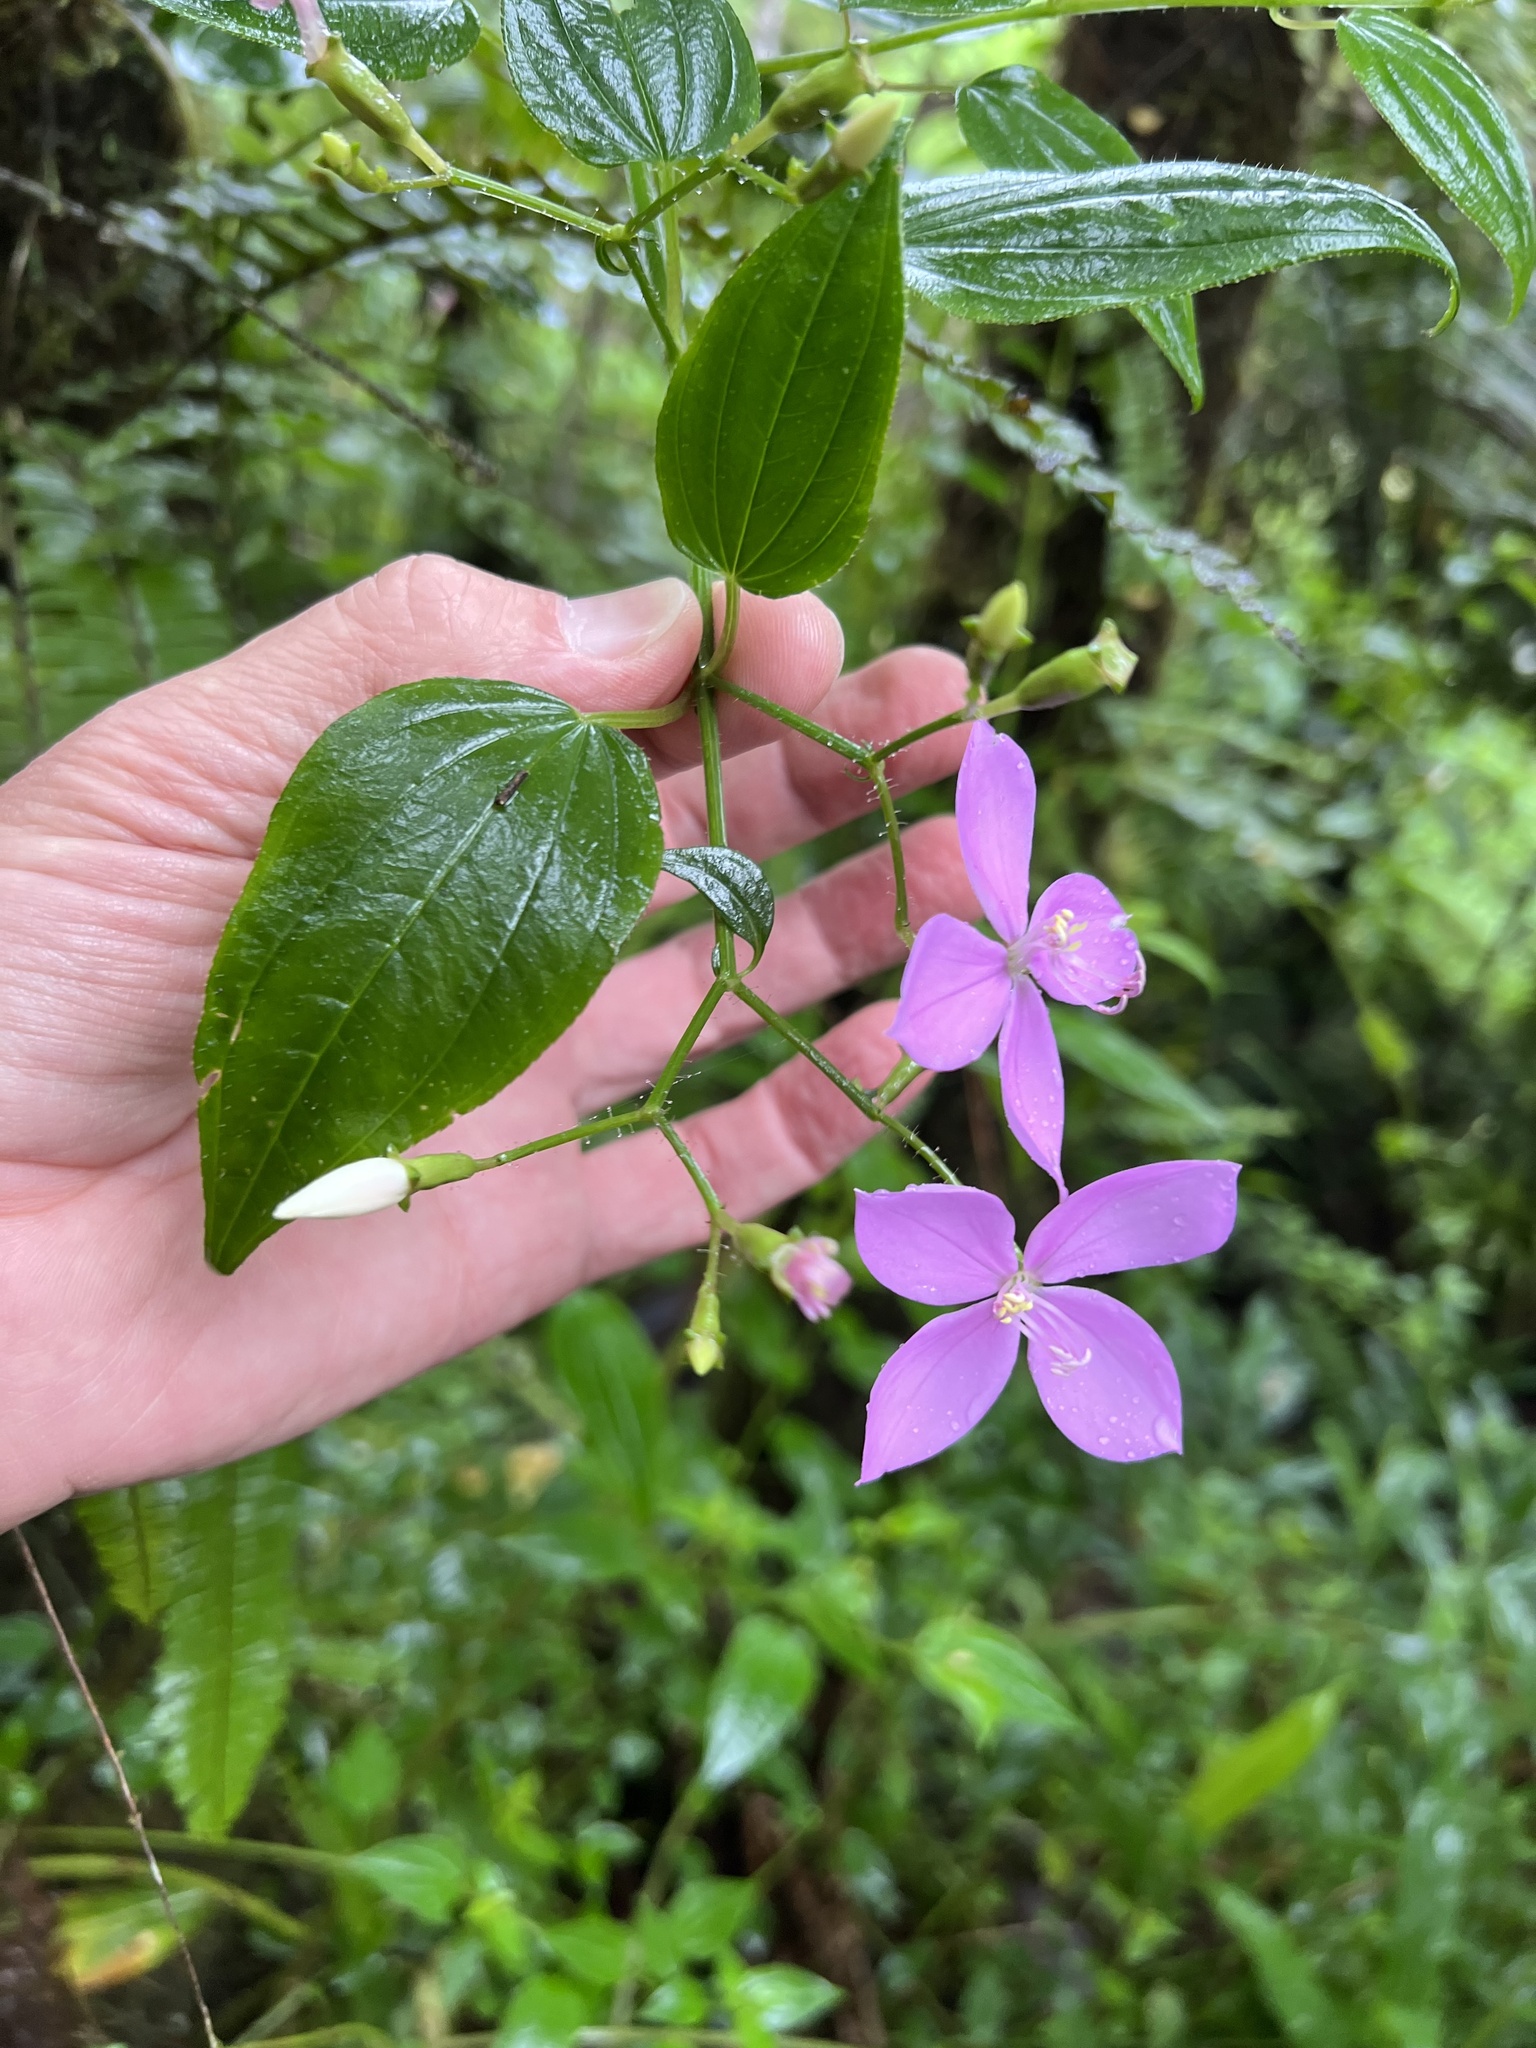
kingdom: Plantae
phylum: Tracheophyta
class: Magnoliopsida
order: Myrtales
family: Melastomataceae
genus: Arthrostemma
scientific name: Arthrostemma ciliatum
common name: Everblooming eavender
